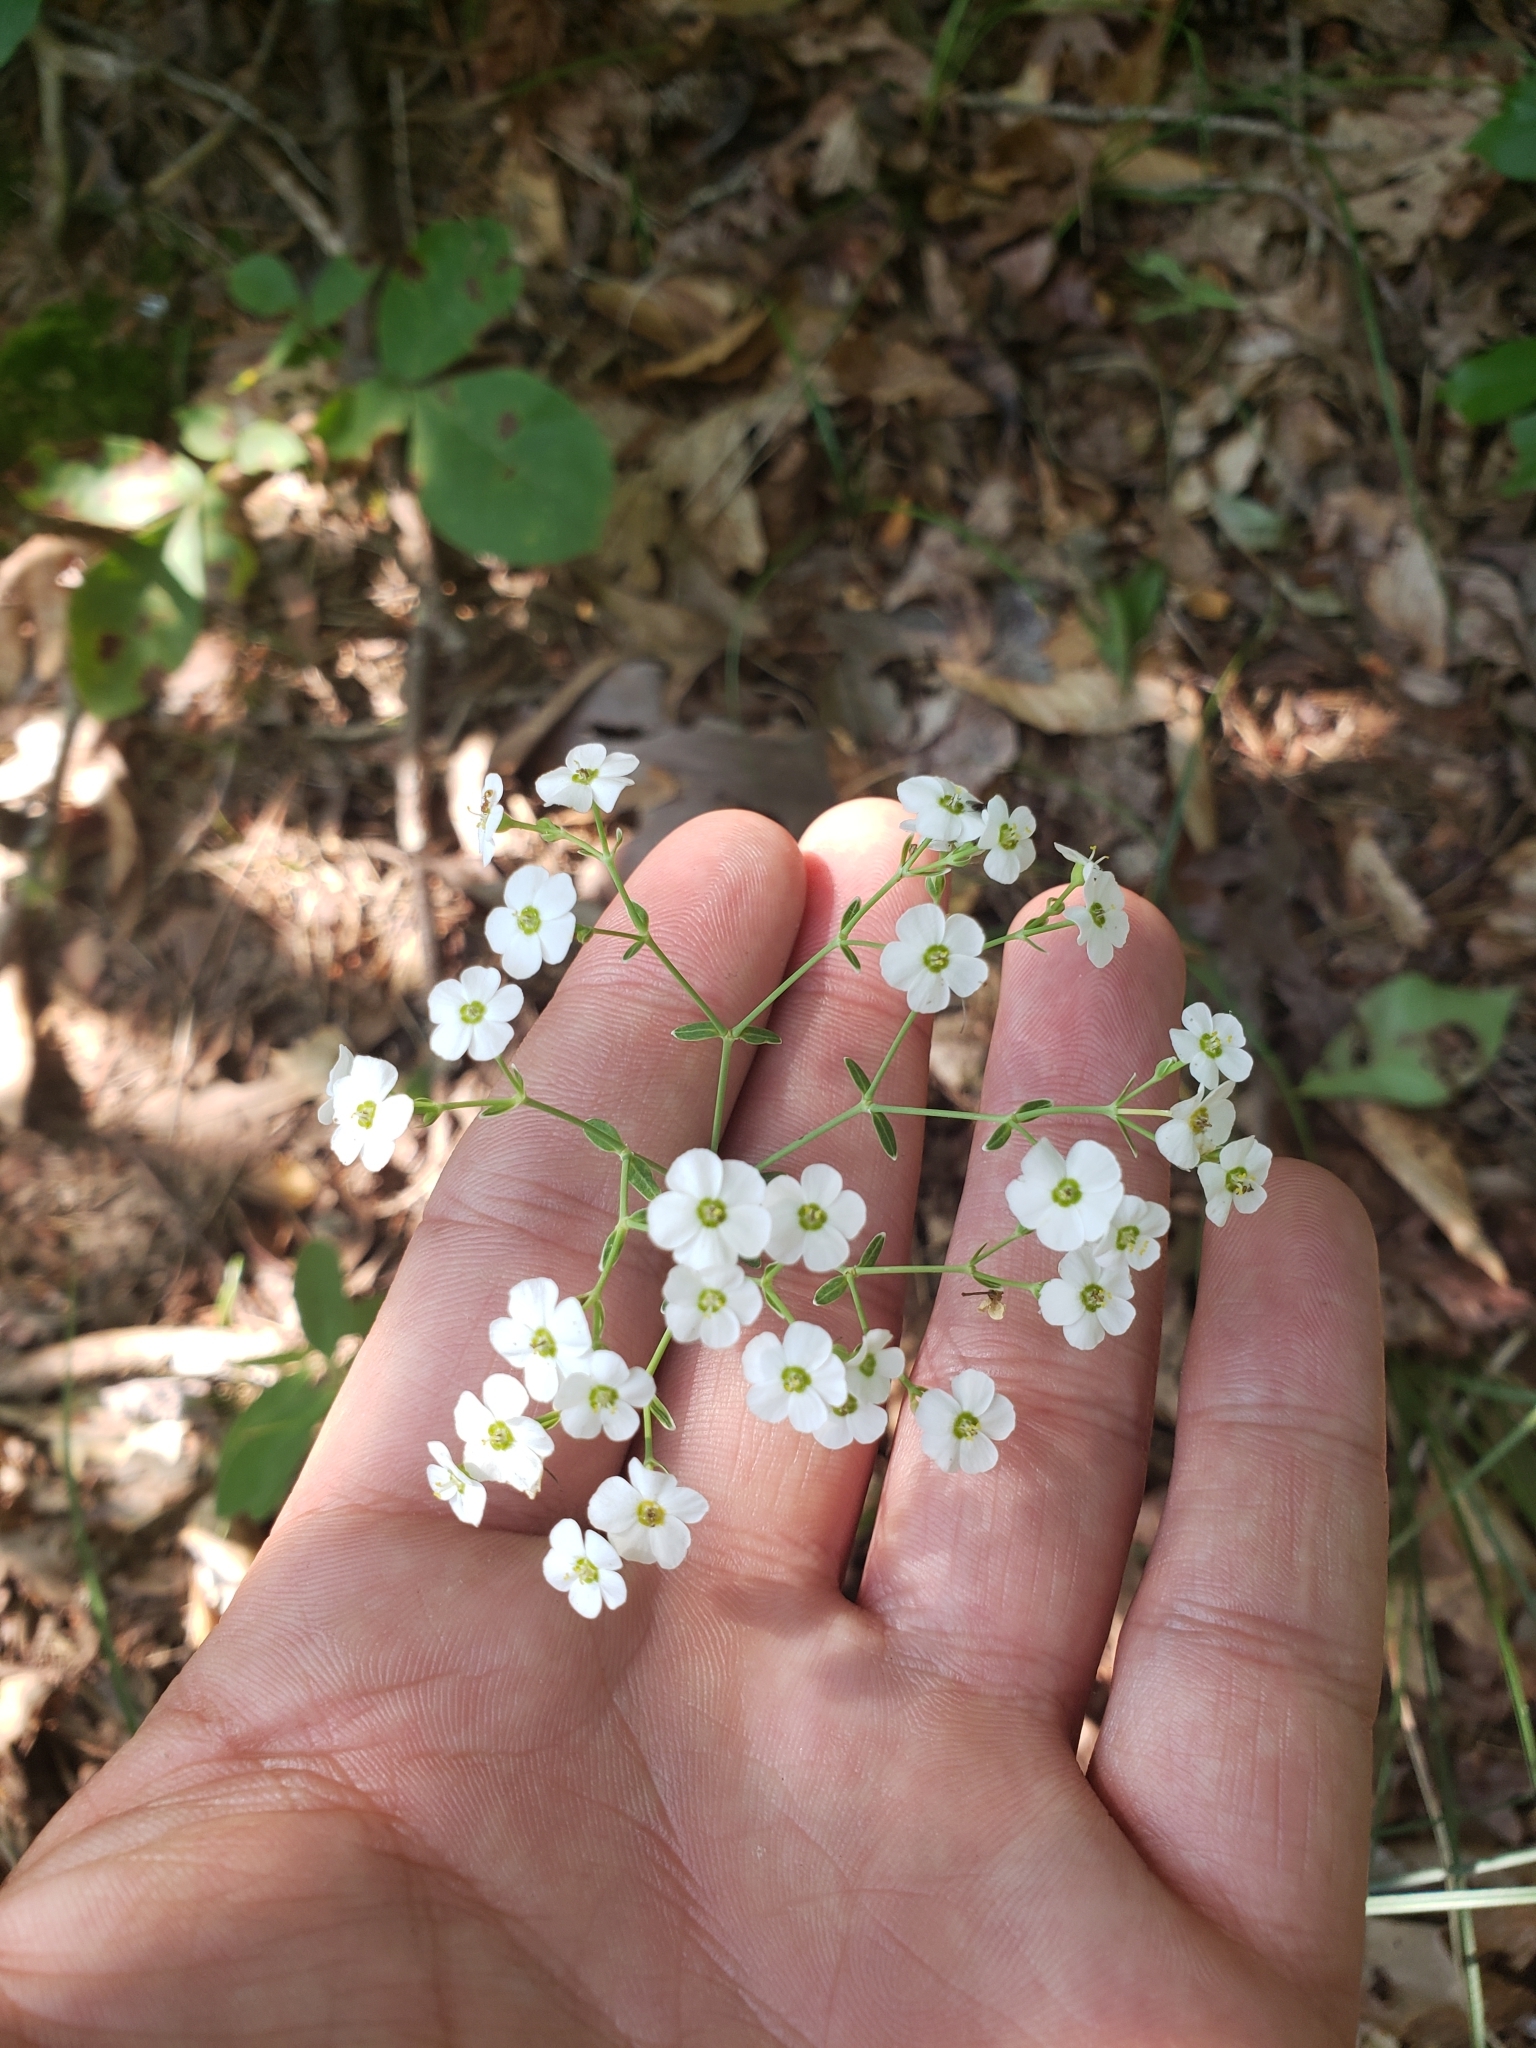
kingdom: Plantae
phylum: Tracheophyta
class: Magnoliopsida
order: Malpighiales
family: Euphorbiaceae
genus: Euphorbia
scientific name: Euphorbia corollata
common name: Flowering spurge
